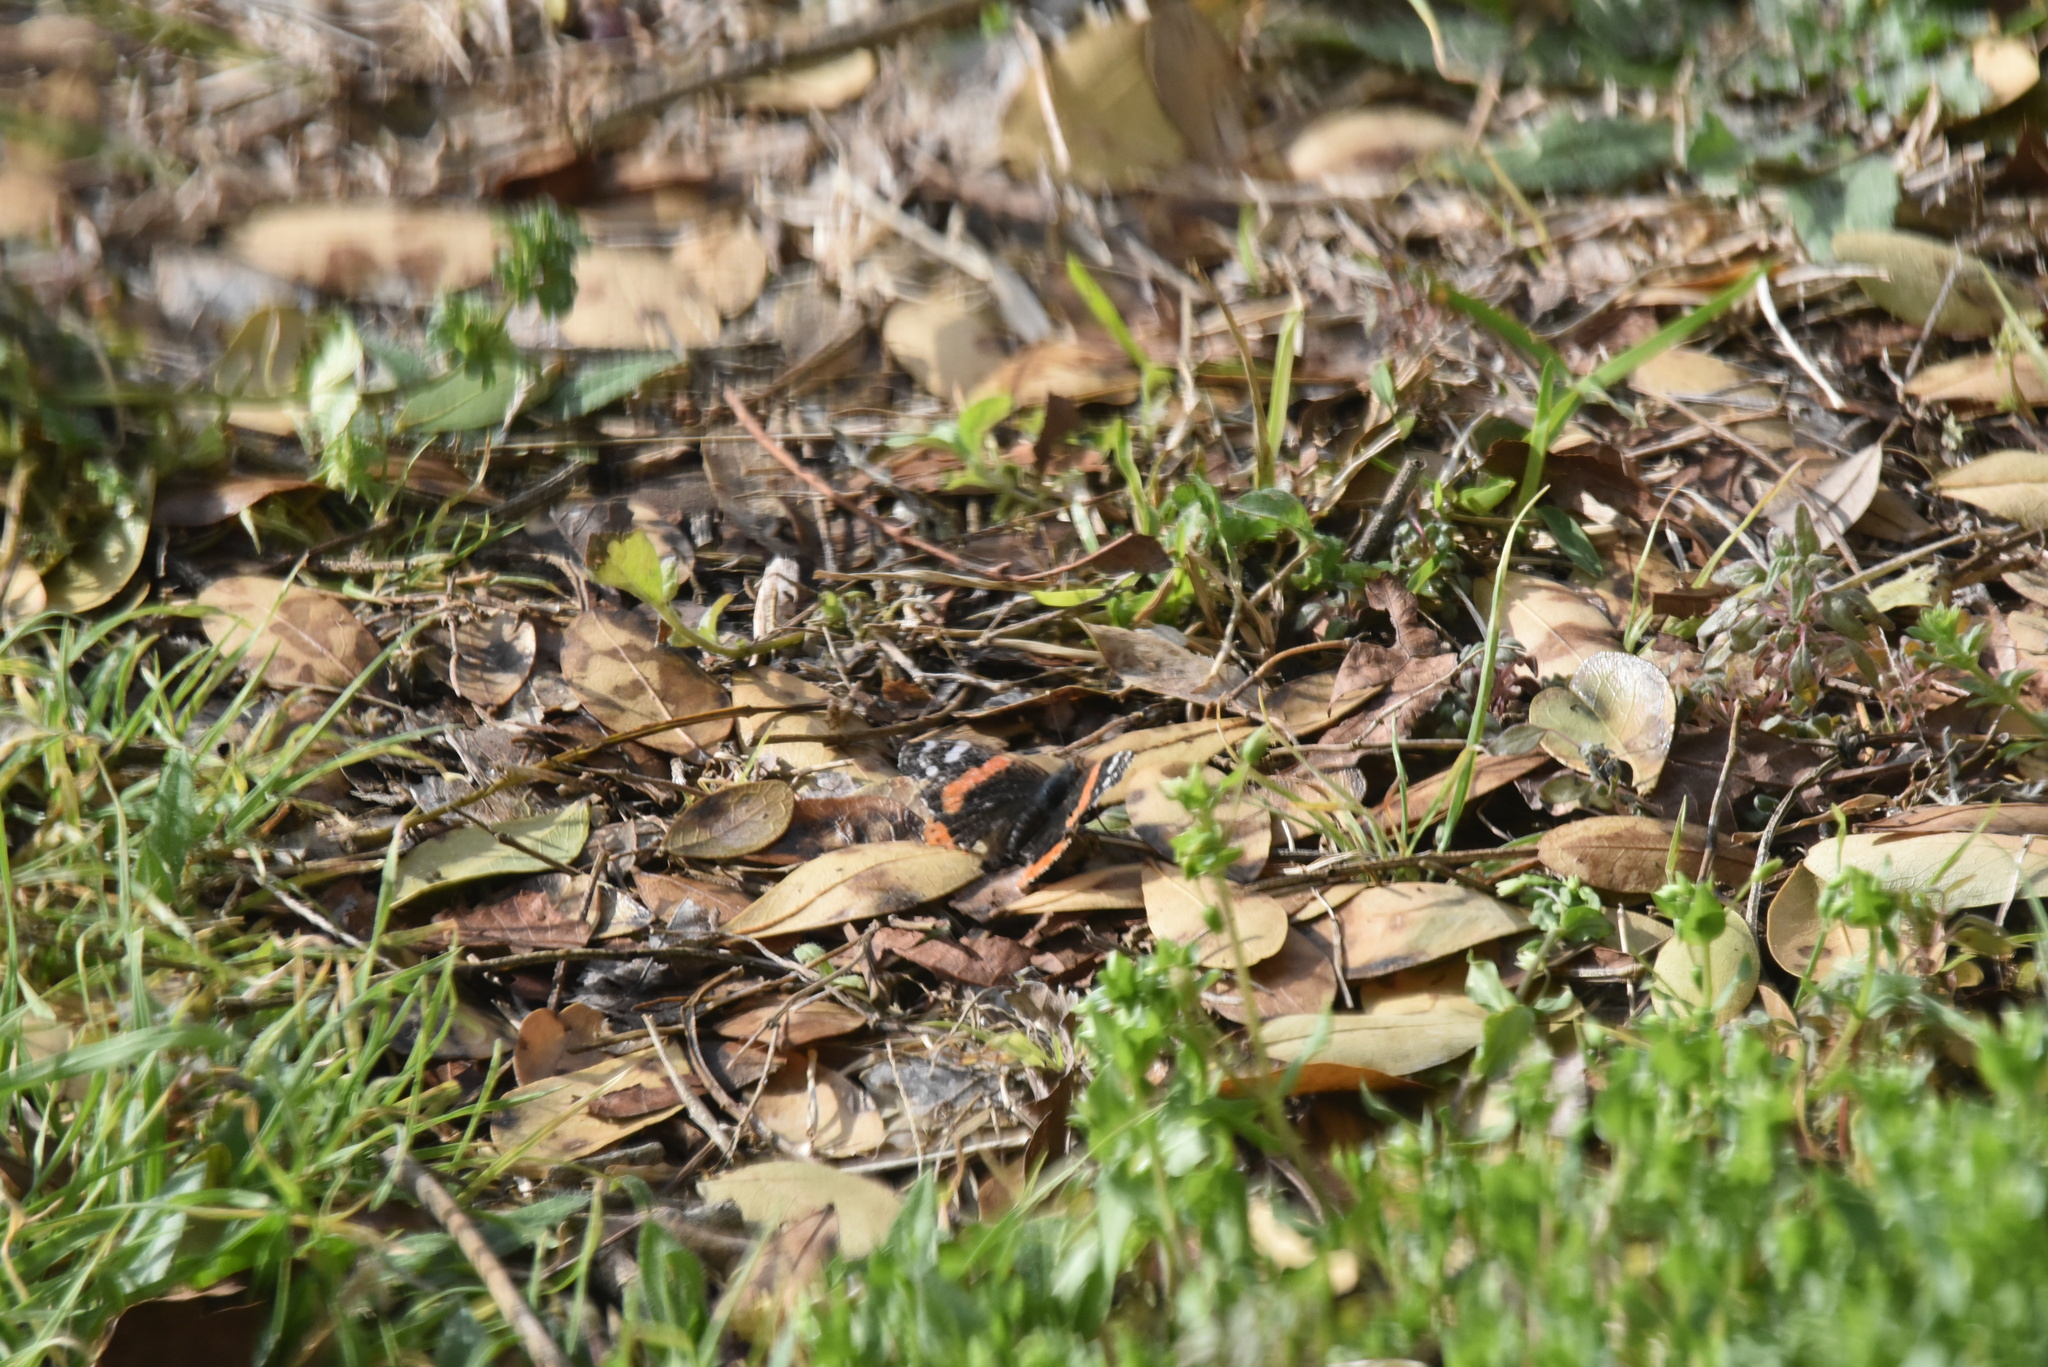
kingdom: Animalia
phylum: Arthropoda
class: Insecta
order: Lepidoptera
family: Nymphalidae
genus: Vanessa
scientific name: Vanessa atalanta
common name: Red admiral
